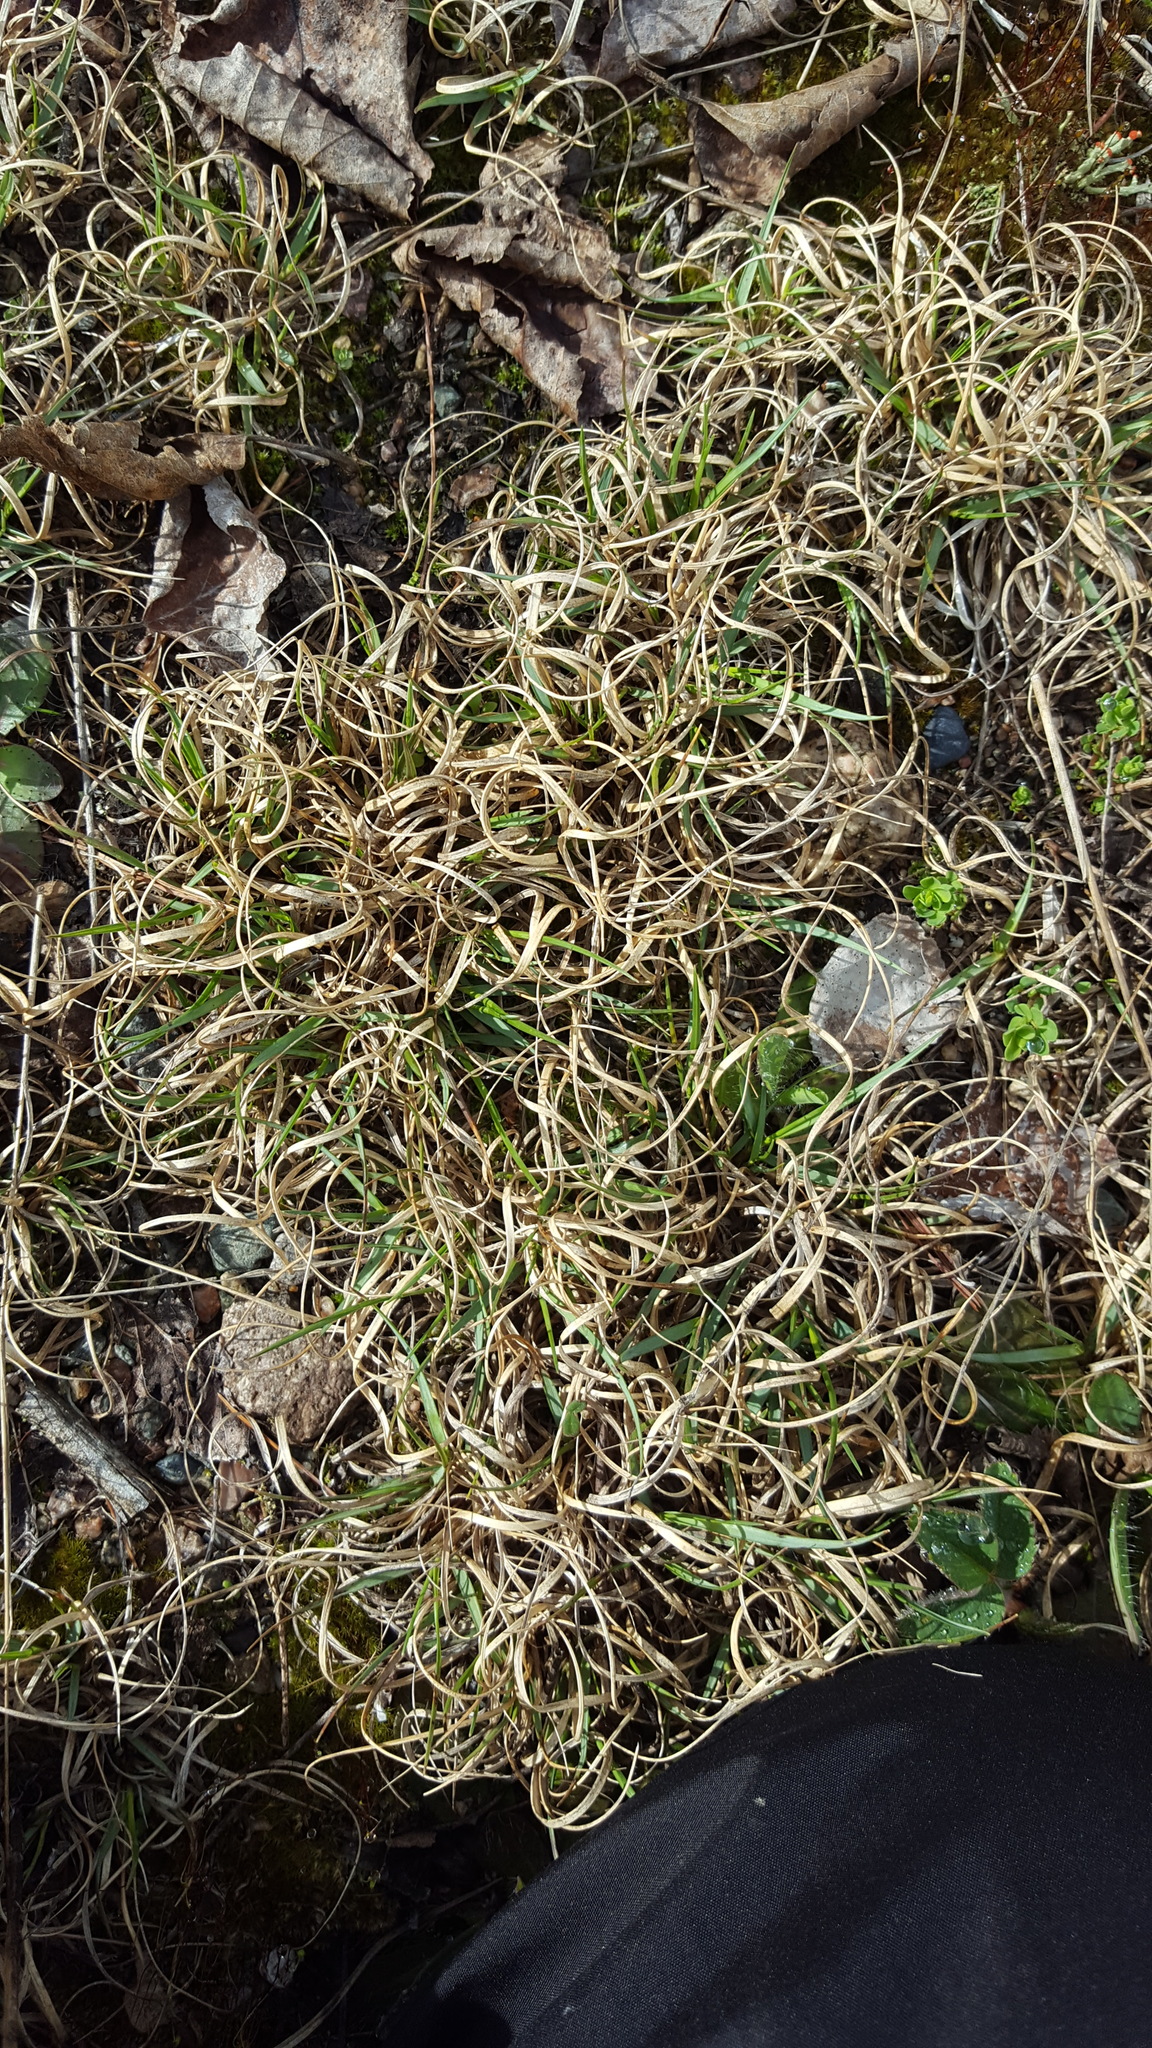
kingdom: Plantae
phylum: Tracheophyta
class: Liliopsida
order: Poales
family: Poaceae
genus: Danthonia
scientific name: Danthonia spicata
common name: Common wild oatgrass
